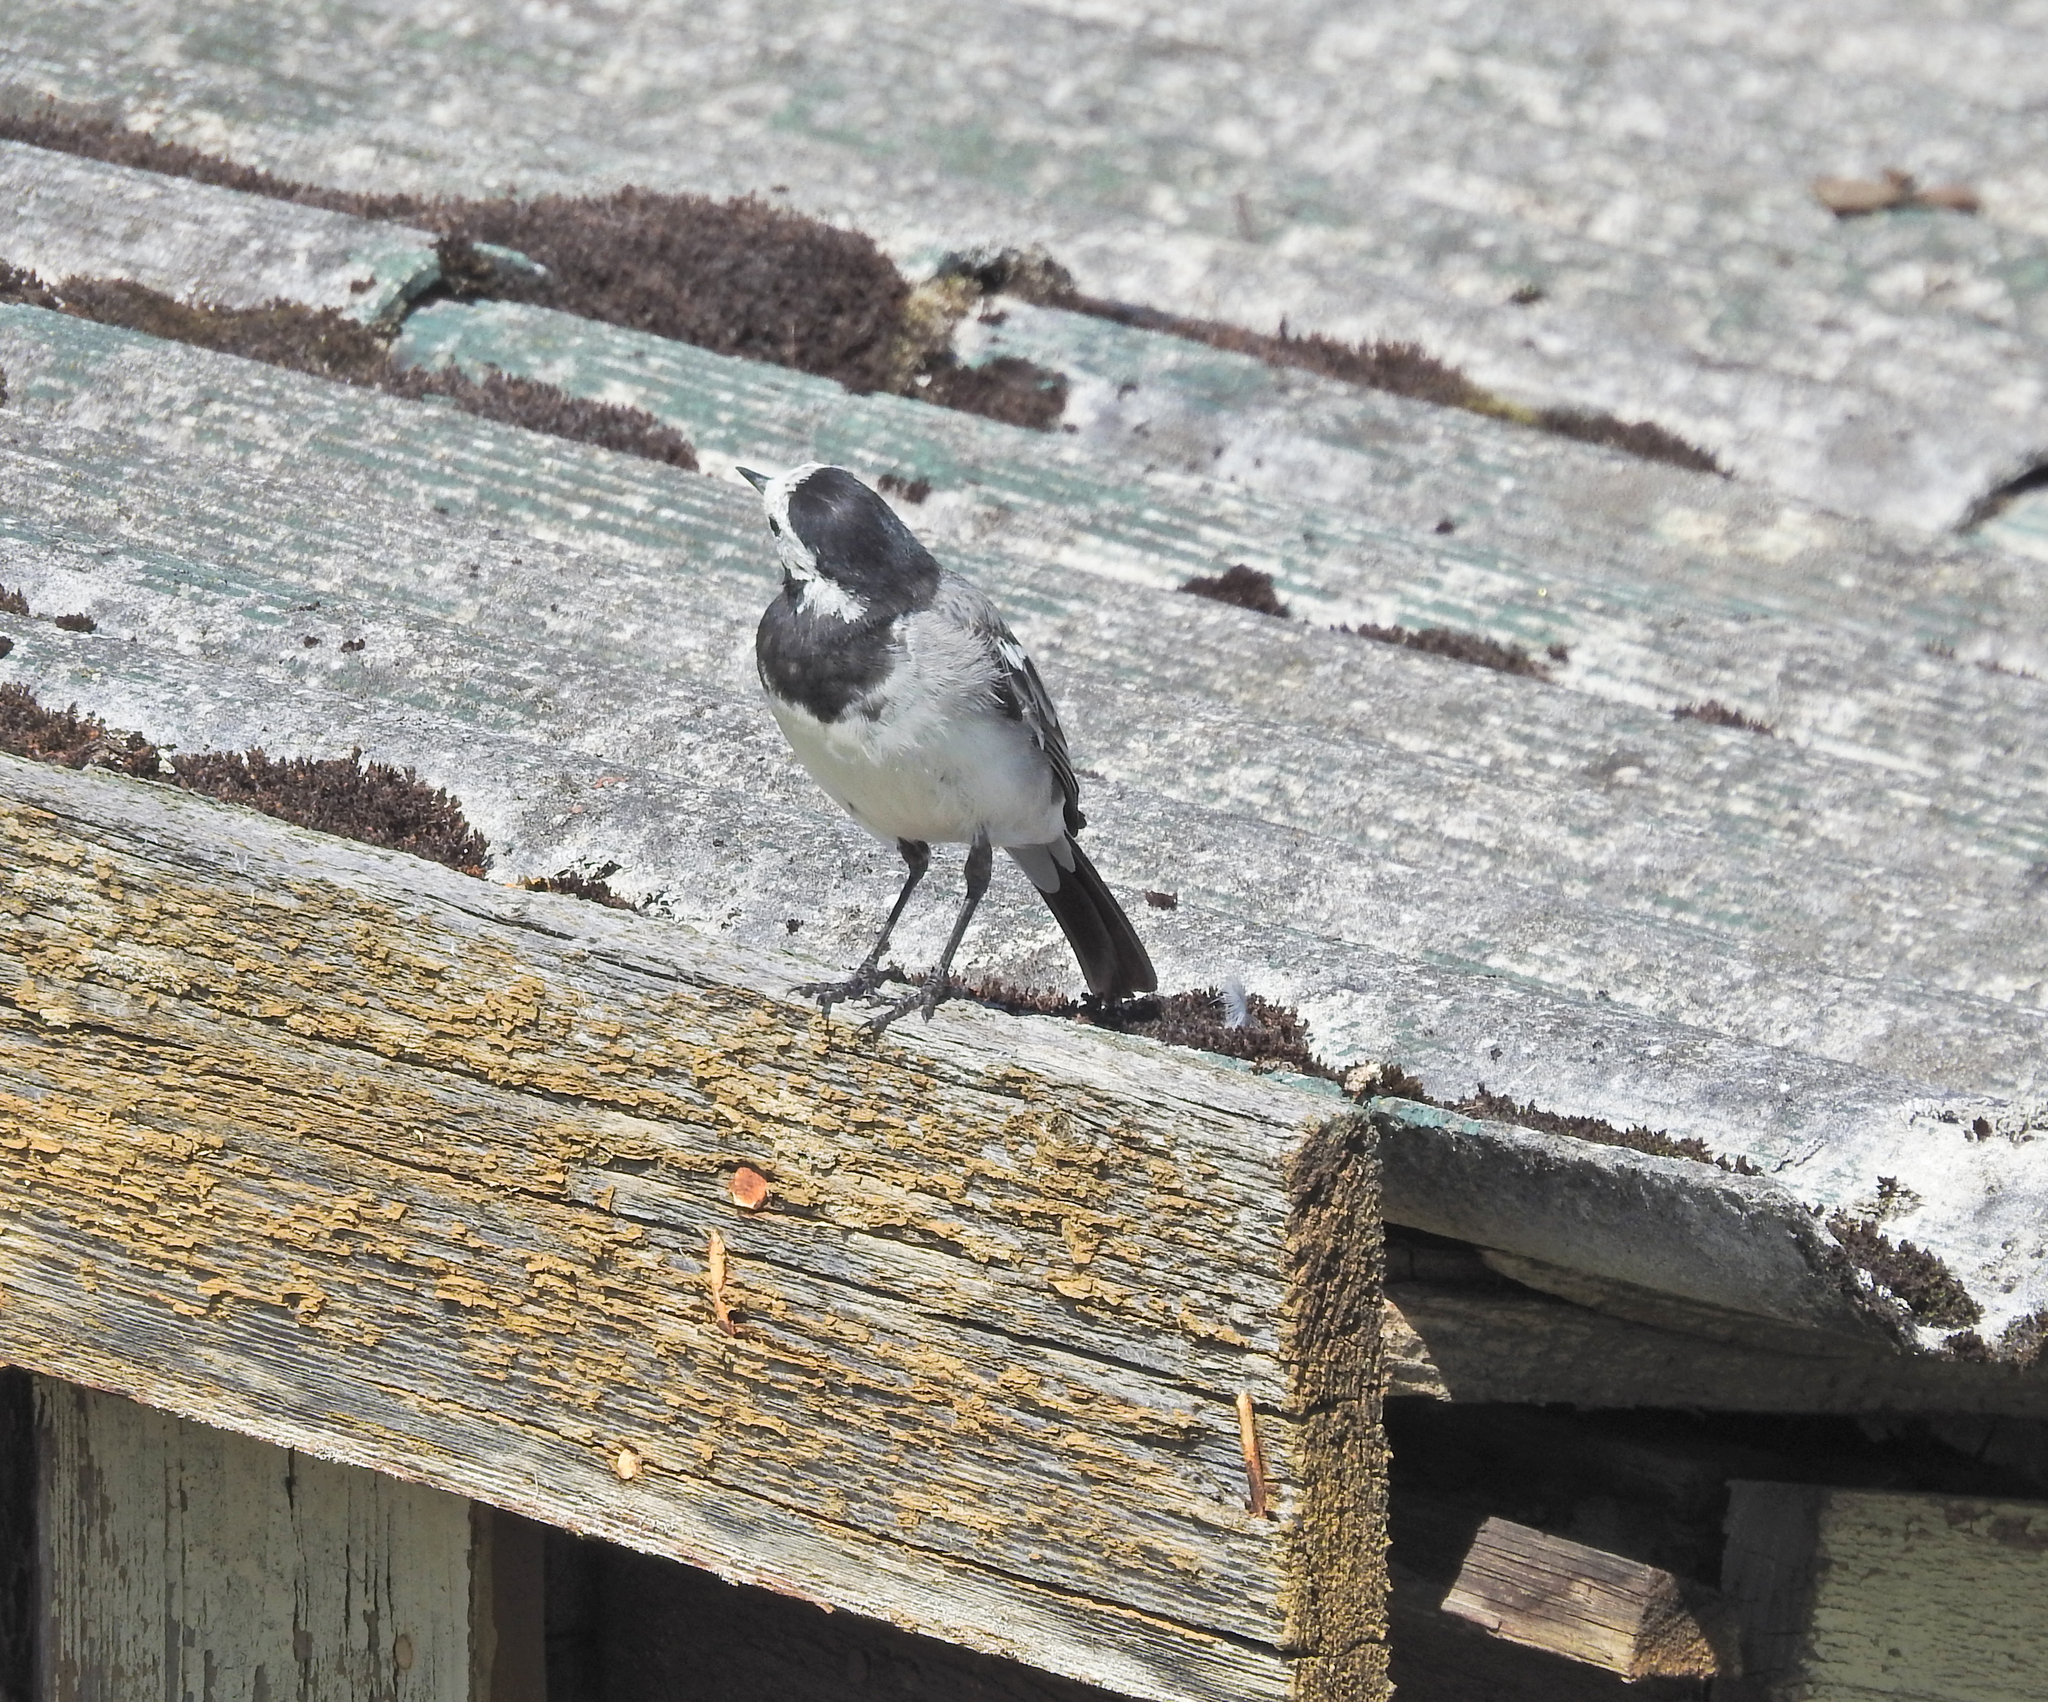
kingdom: Animalia
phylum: Chordata
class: Aves
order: Passeriformes
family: Motacillidae
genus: Motacilla
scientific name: Motacilla alba
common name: White wagtail
